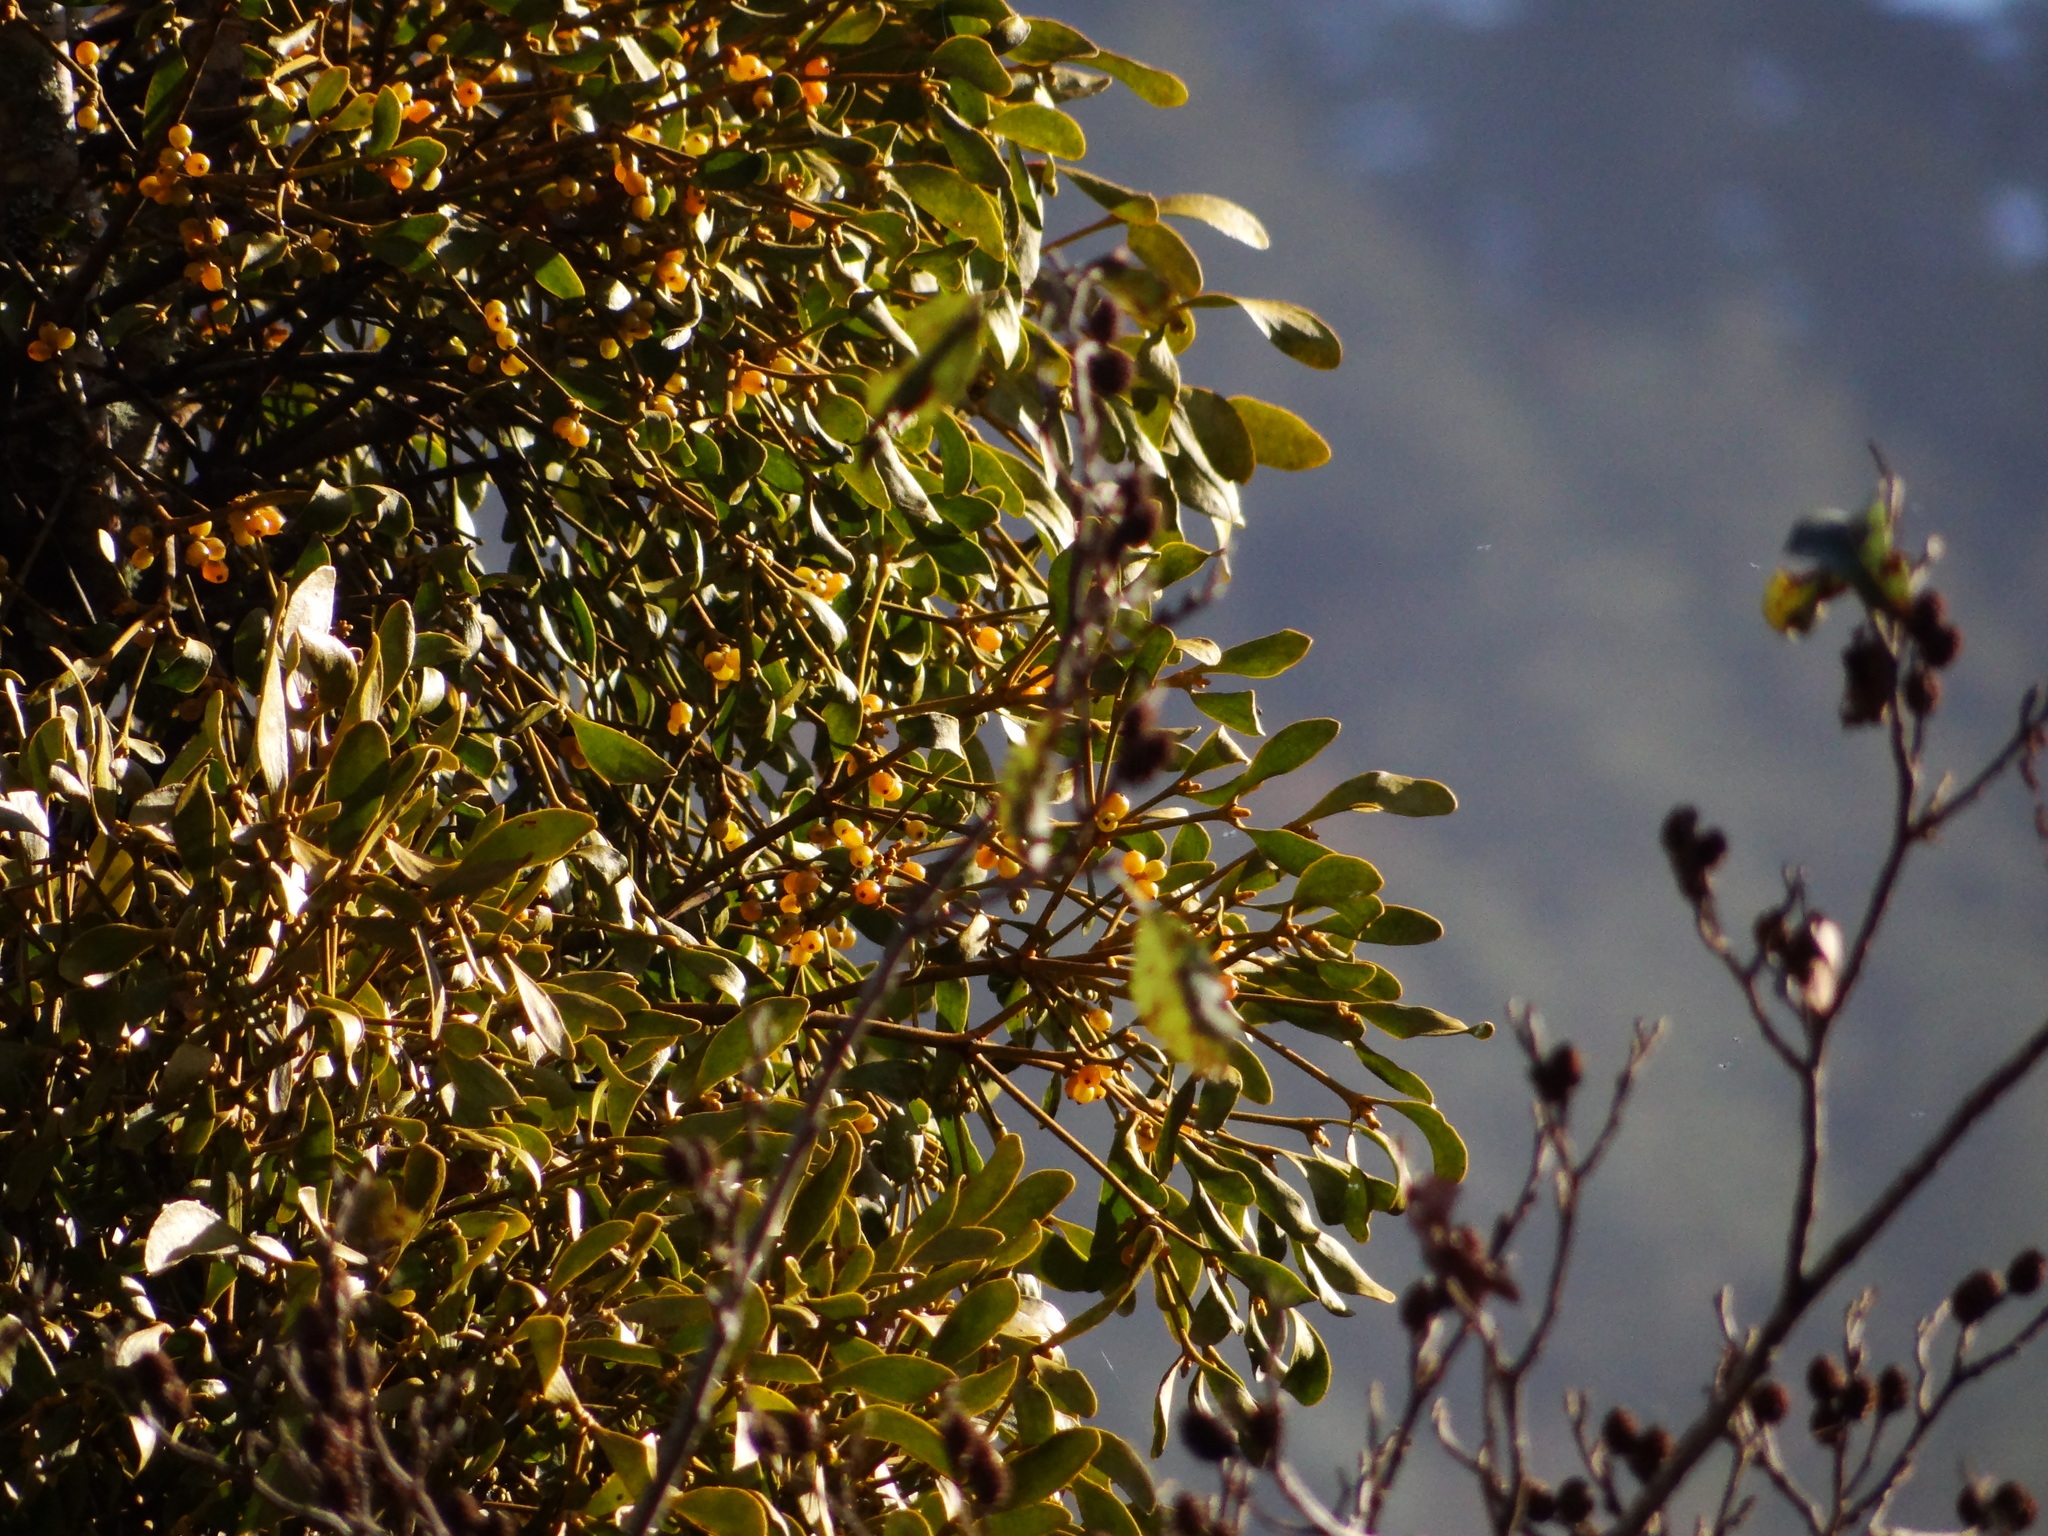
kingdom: Plantae
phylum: Tracheophyta
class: Magnoliopsida
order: Santalales
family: Viscaceae
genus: Viscum
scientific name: Viscum coloratum
